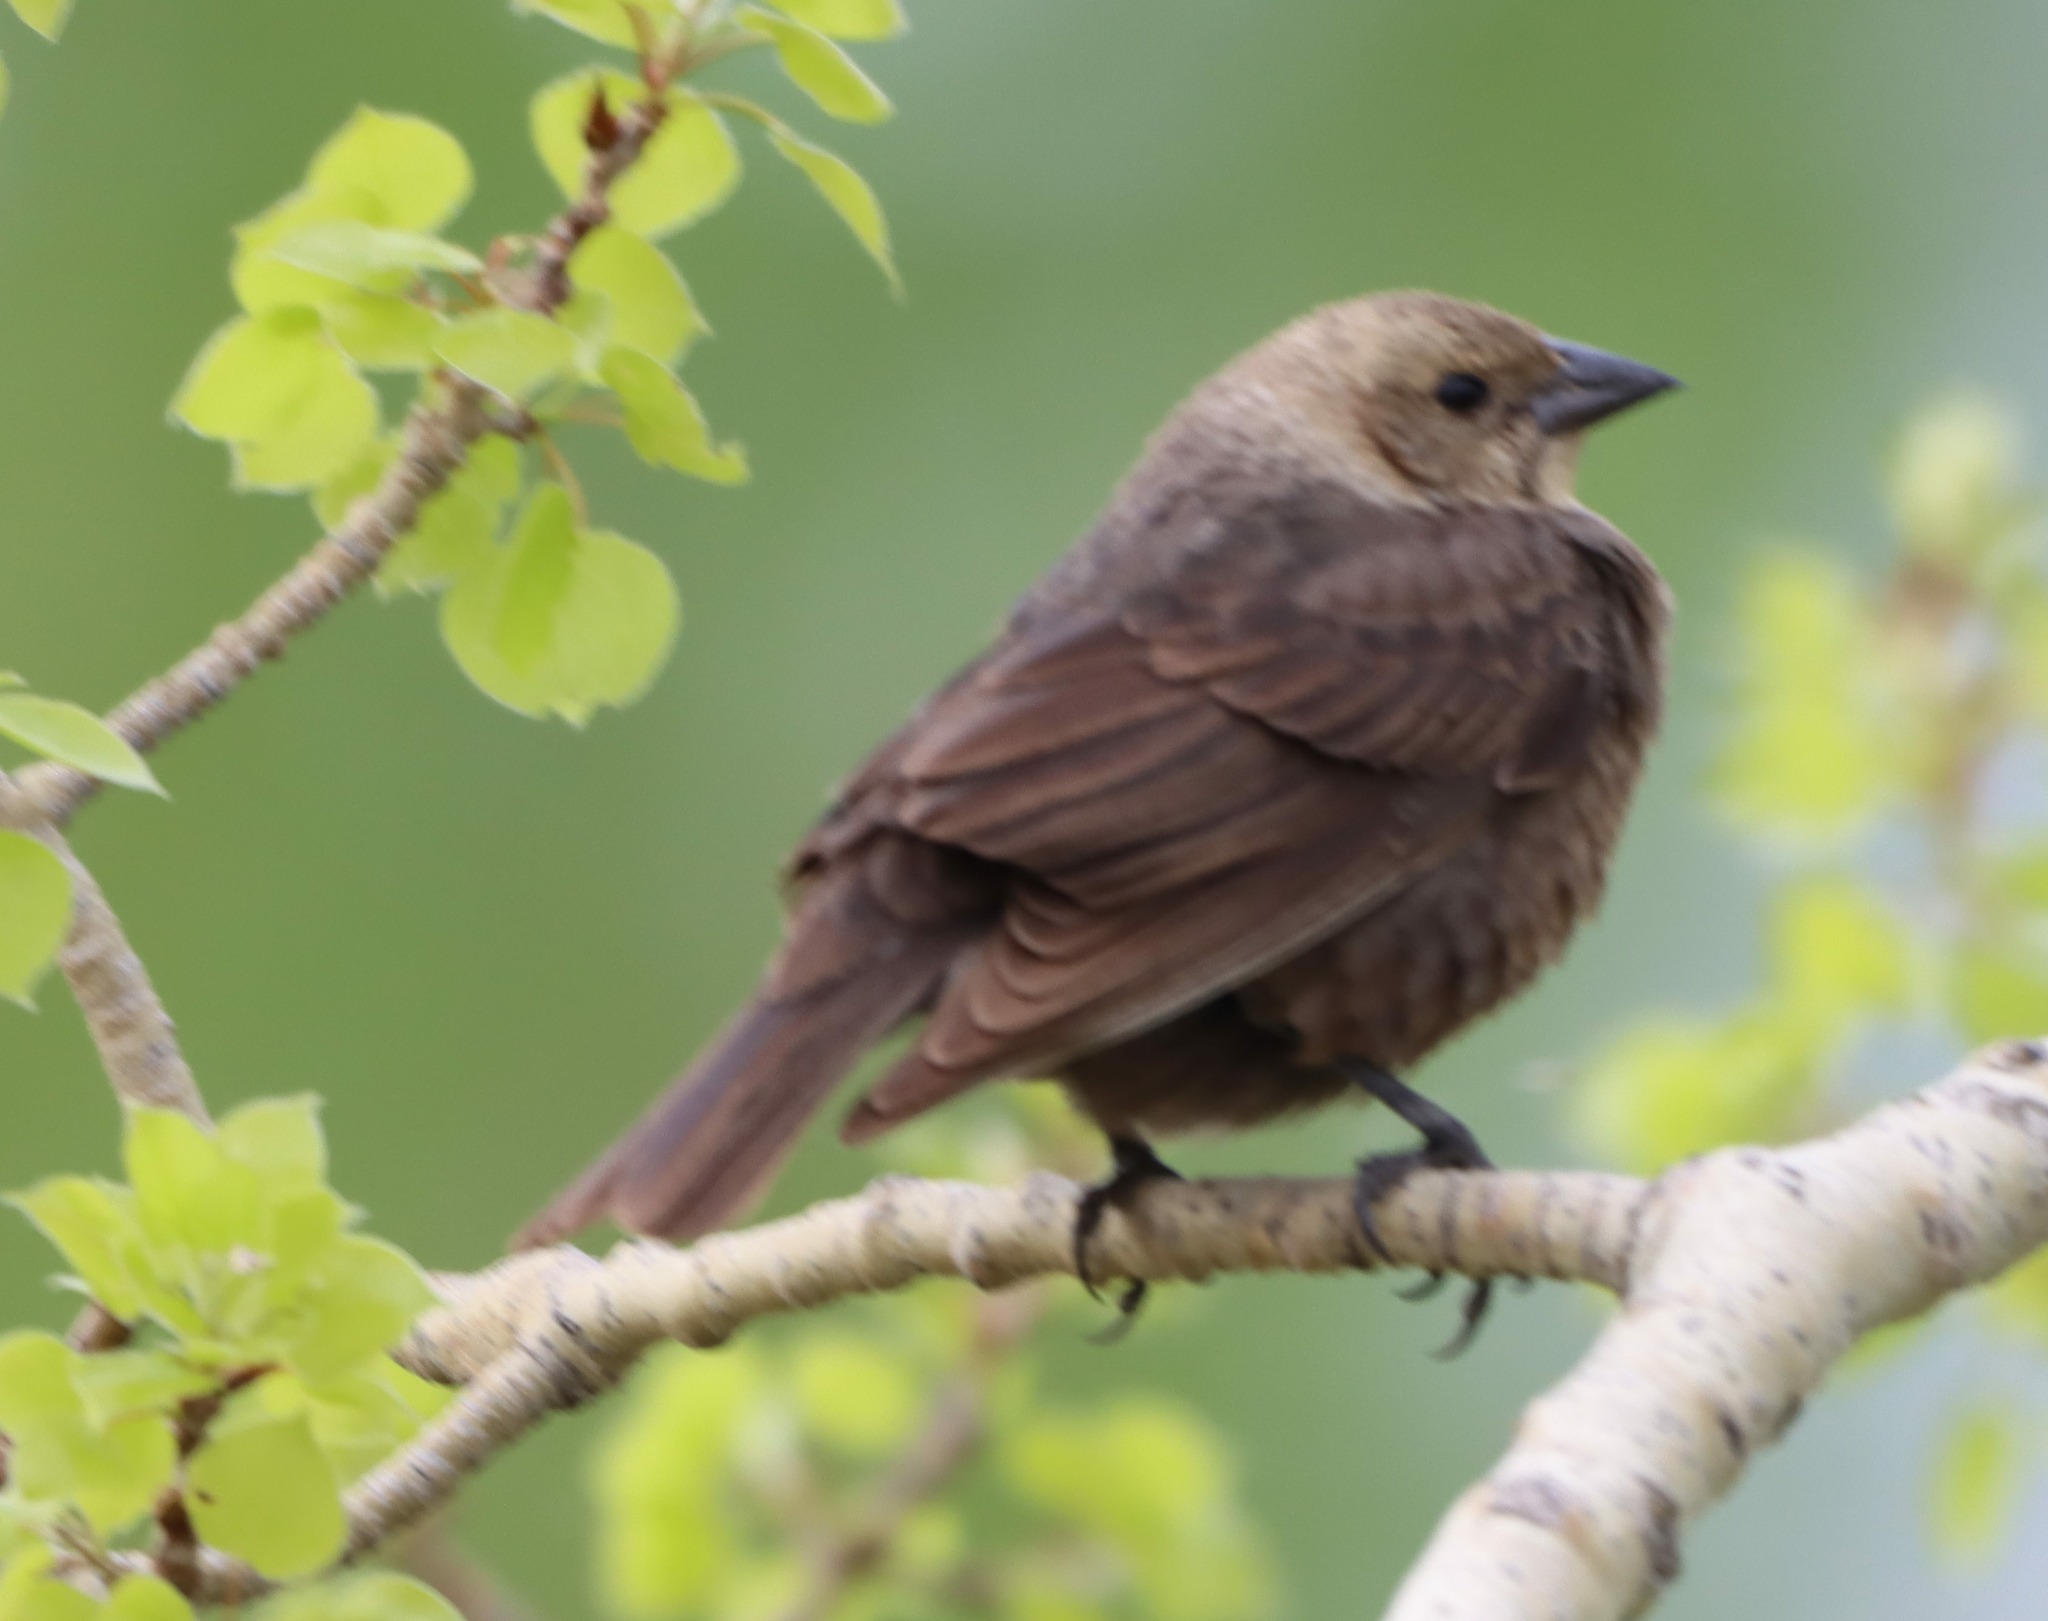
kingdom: Animalia
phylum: Chordata
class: Aves
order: Passeriformes
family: Icteridae
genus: Molothrus
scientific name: Molothrus ater
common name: Brown-headed cowbird
